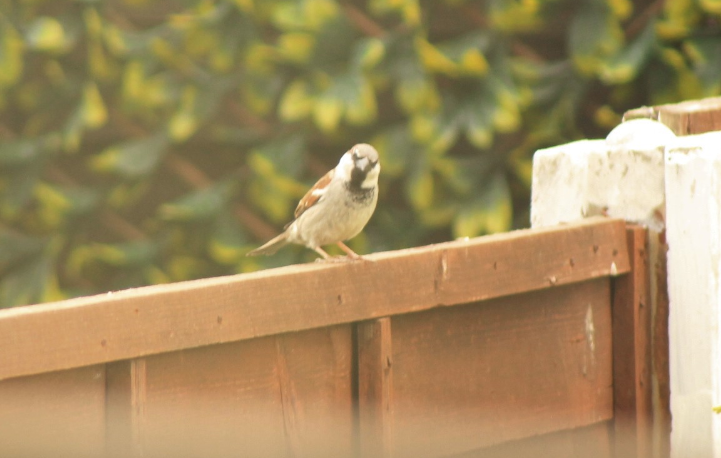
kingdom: Animalia
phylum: Chordata
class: Aves
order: Passeriformes
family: Passeridae
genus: Passer
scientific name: Passer domesticus
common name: House sparrow
